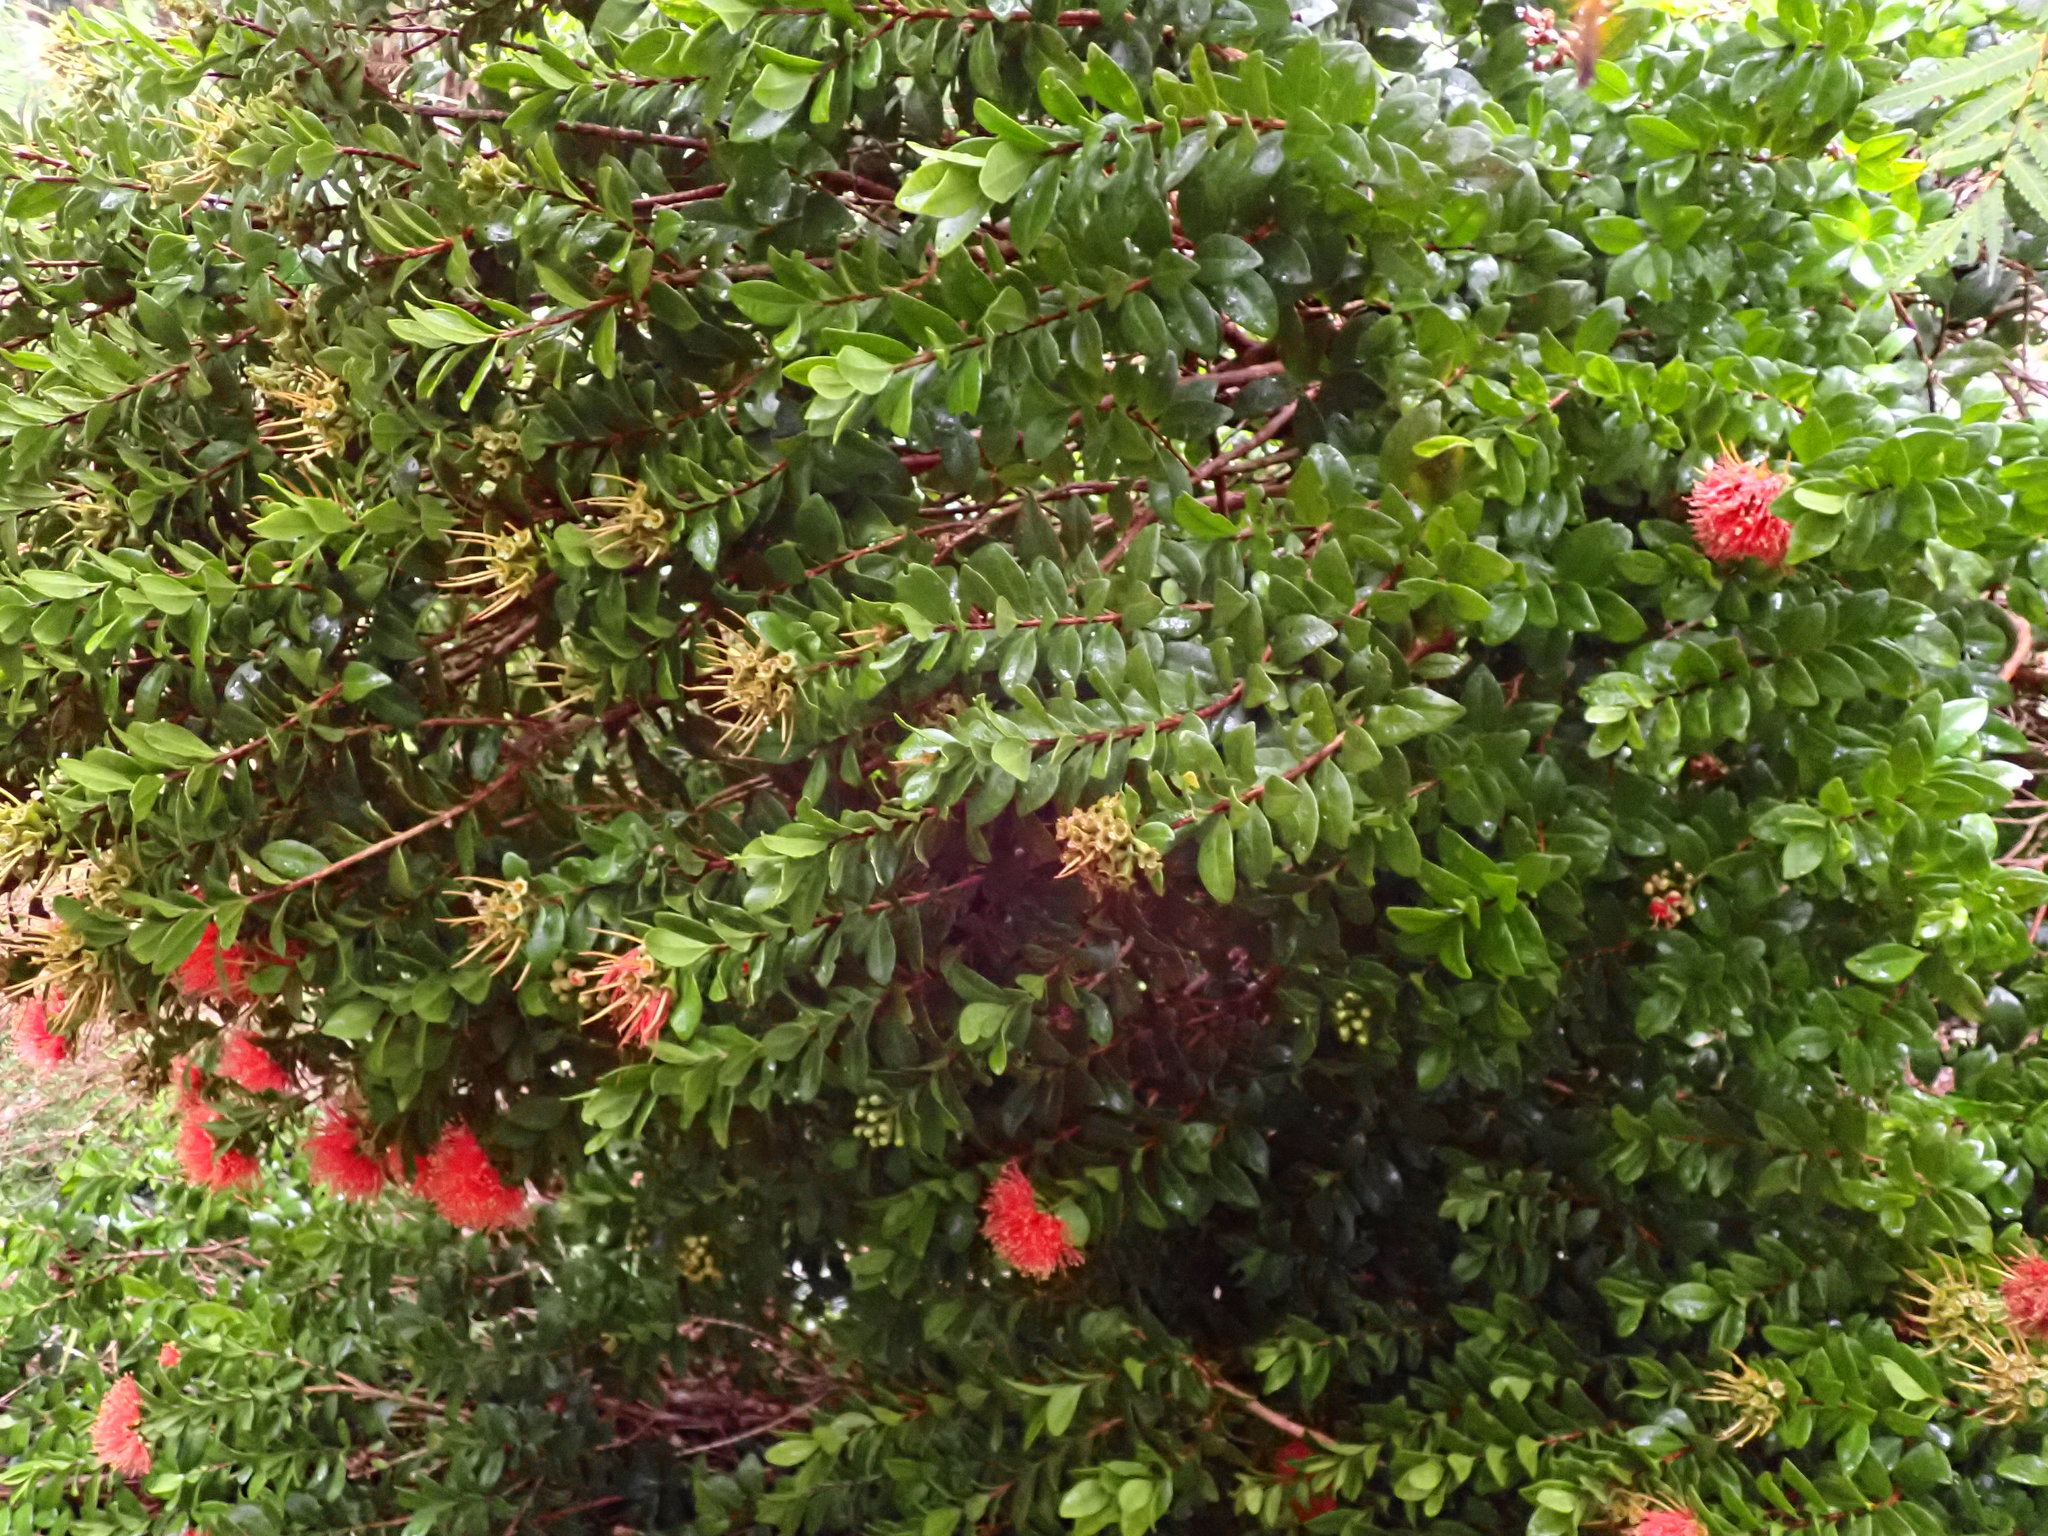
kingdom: Plantae
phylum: Tracheophyta
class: Magnoliopsida
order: Myrtales
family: Myrtaceae
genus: Metrosideros
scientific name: Metrosideros fulgens
